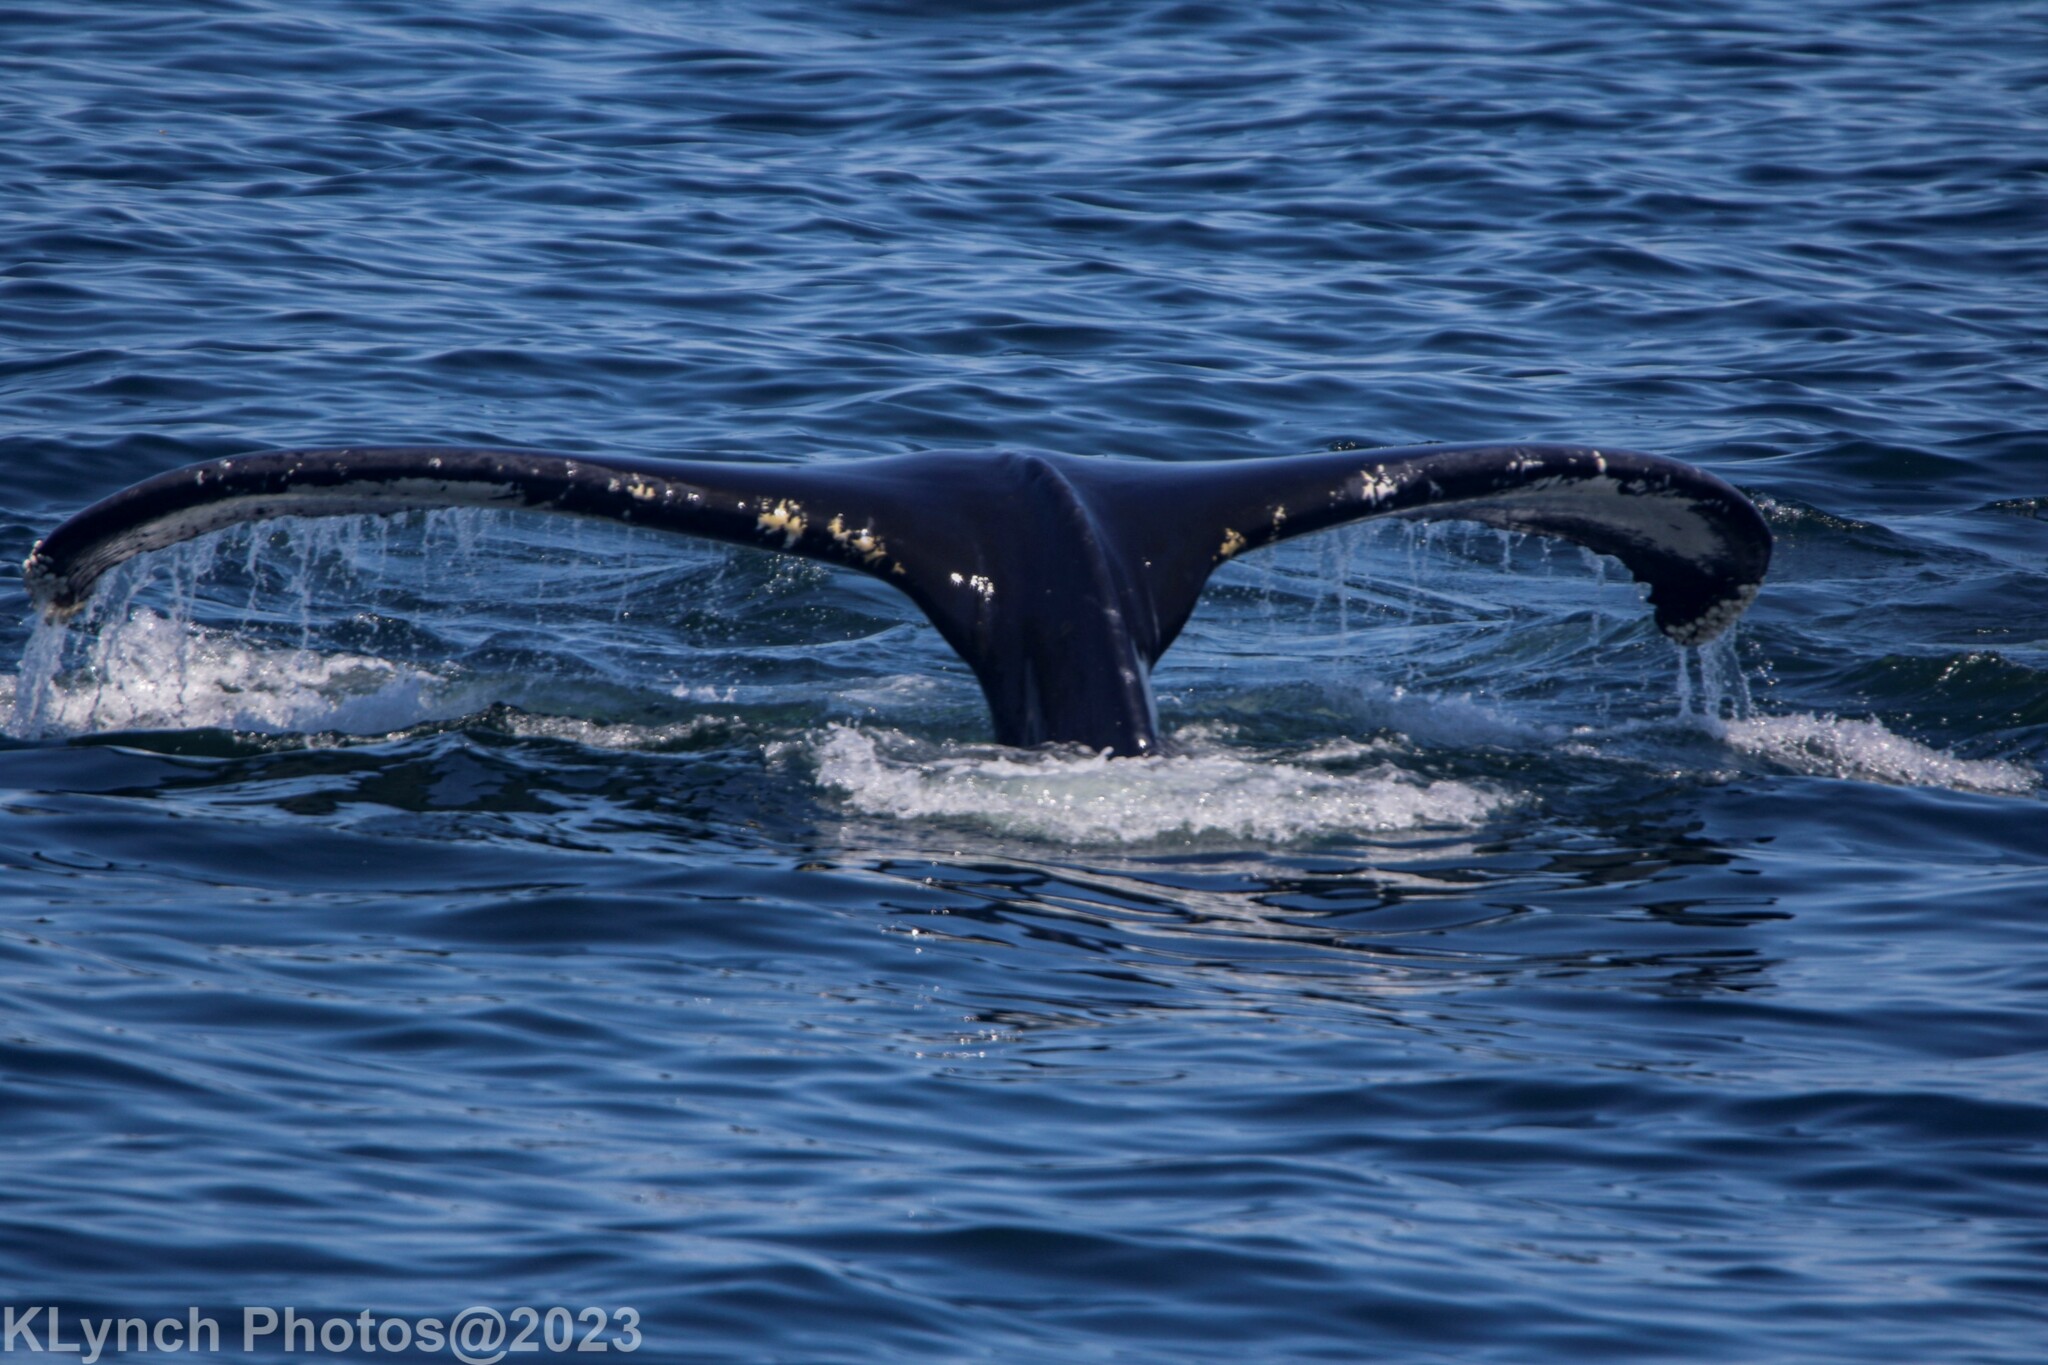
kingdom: Animalia
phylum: Chordata
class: Mammalia
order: Cetacea
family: Balaenopteridae
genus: Megaptera
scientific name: Megaptera novaeangliae
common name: Humpback whale
